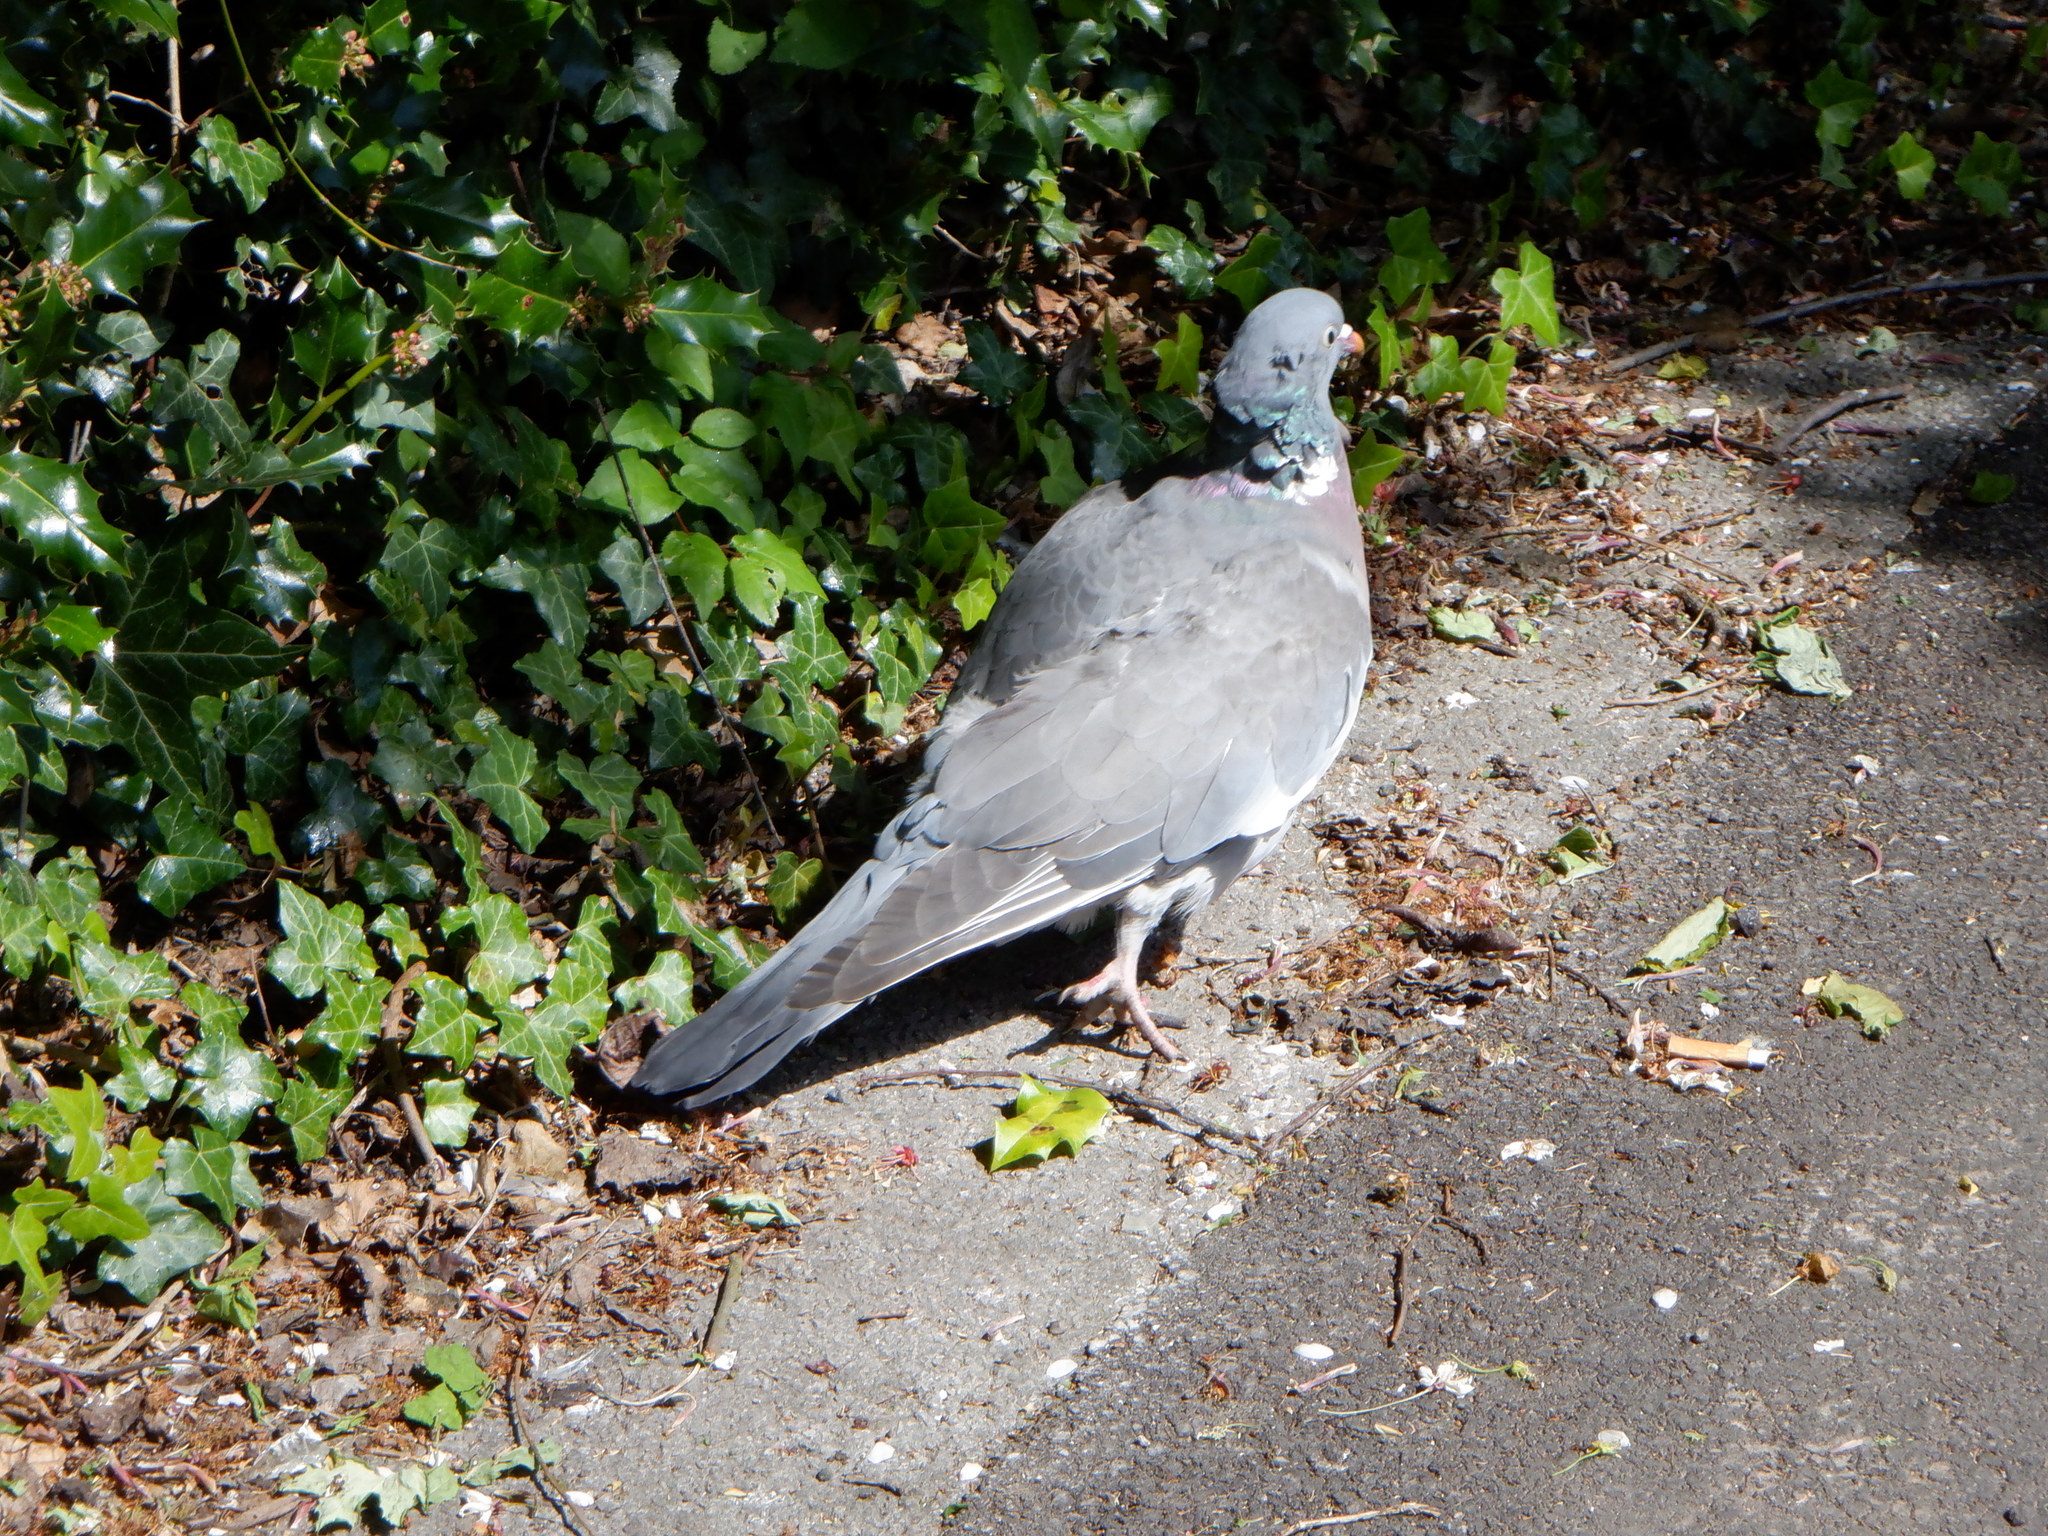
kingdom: Animalia
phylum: Chordata
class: Aves
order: Columbiformes
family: Columbidae
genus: Columba
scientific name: Columba palumbus
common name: Common wood pigeon
